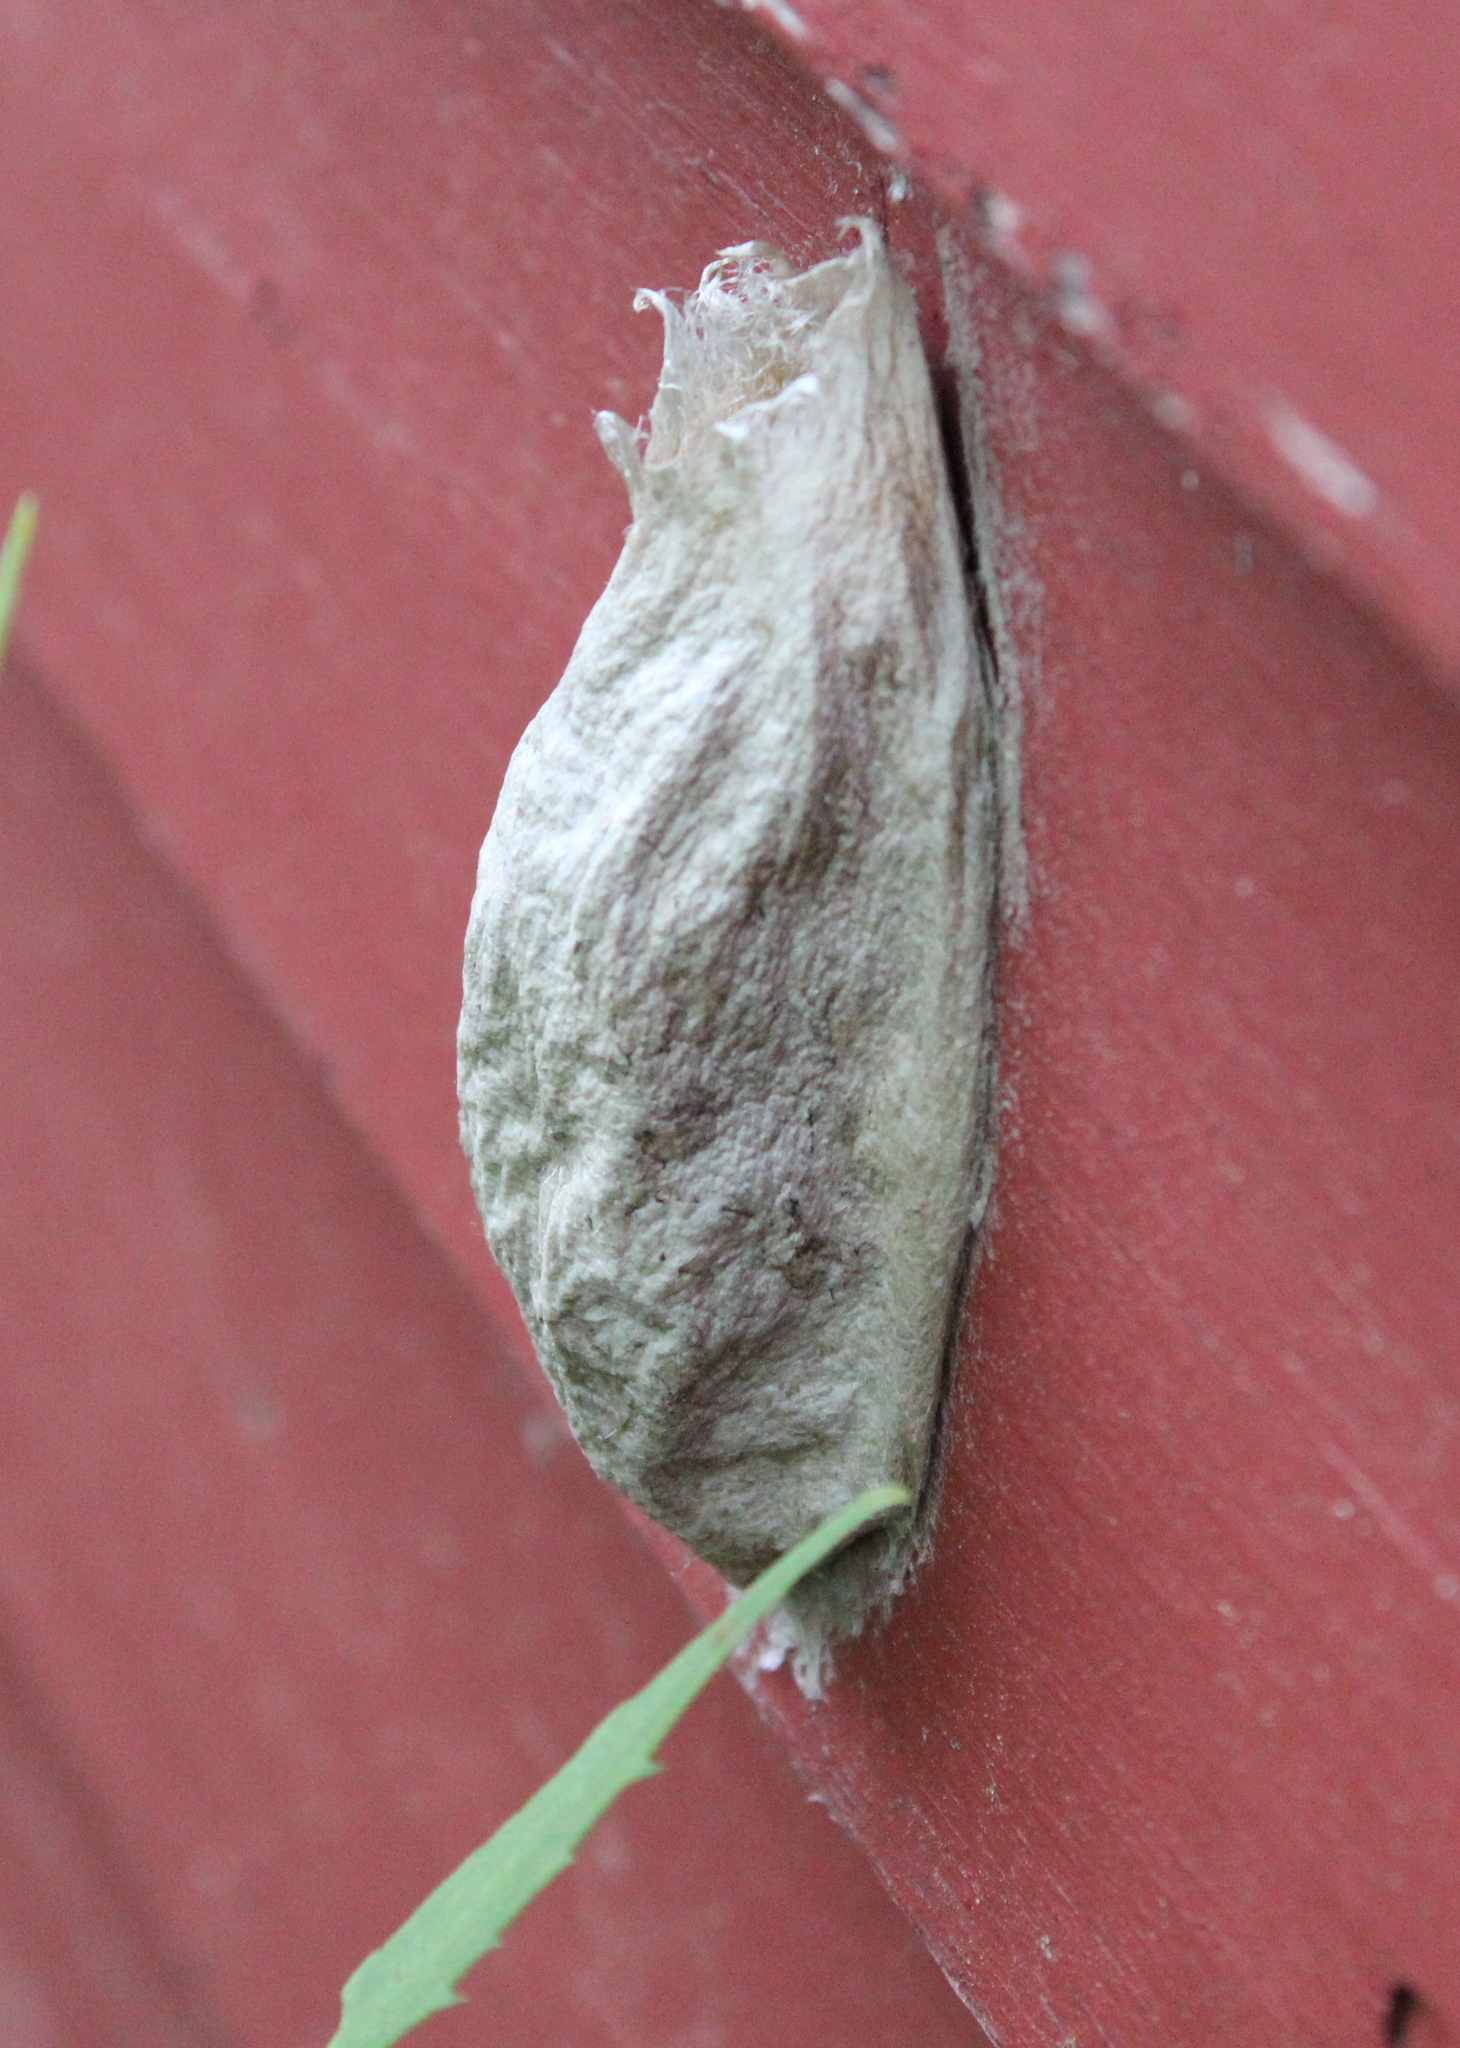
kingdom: Animalia
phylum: Arthropoda
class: Insecta
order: Lepidoptera
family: Saturniidae
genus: Hyalophora
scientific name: Hyalophora cecropia
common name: Cecropia silkmoth
